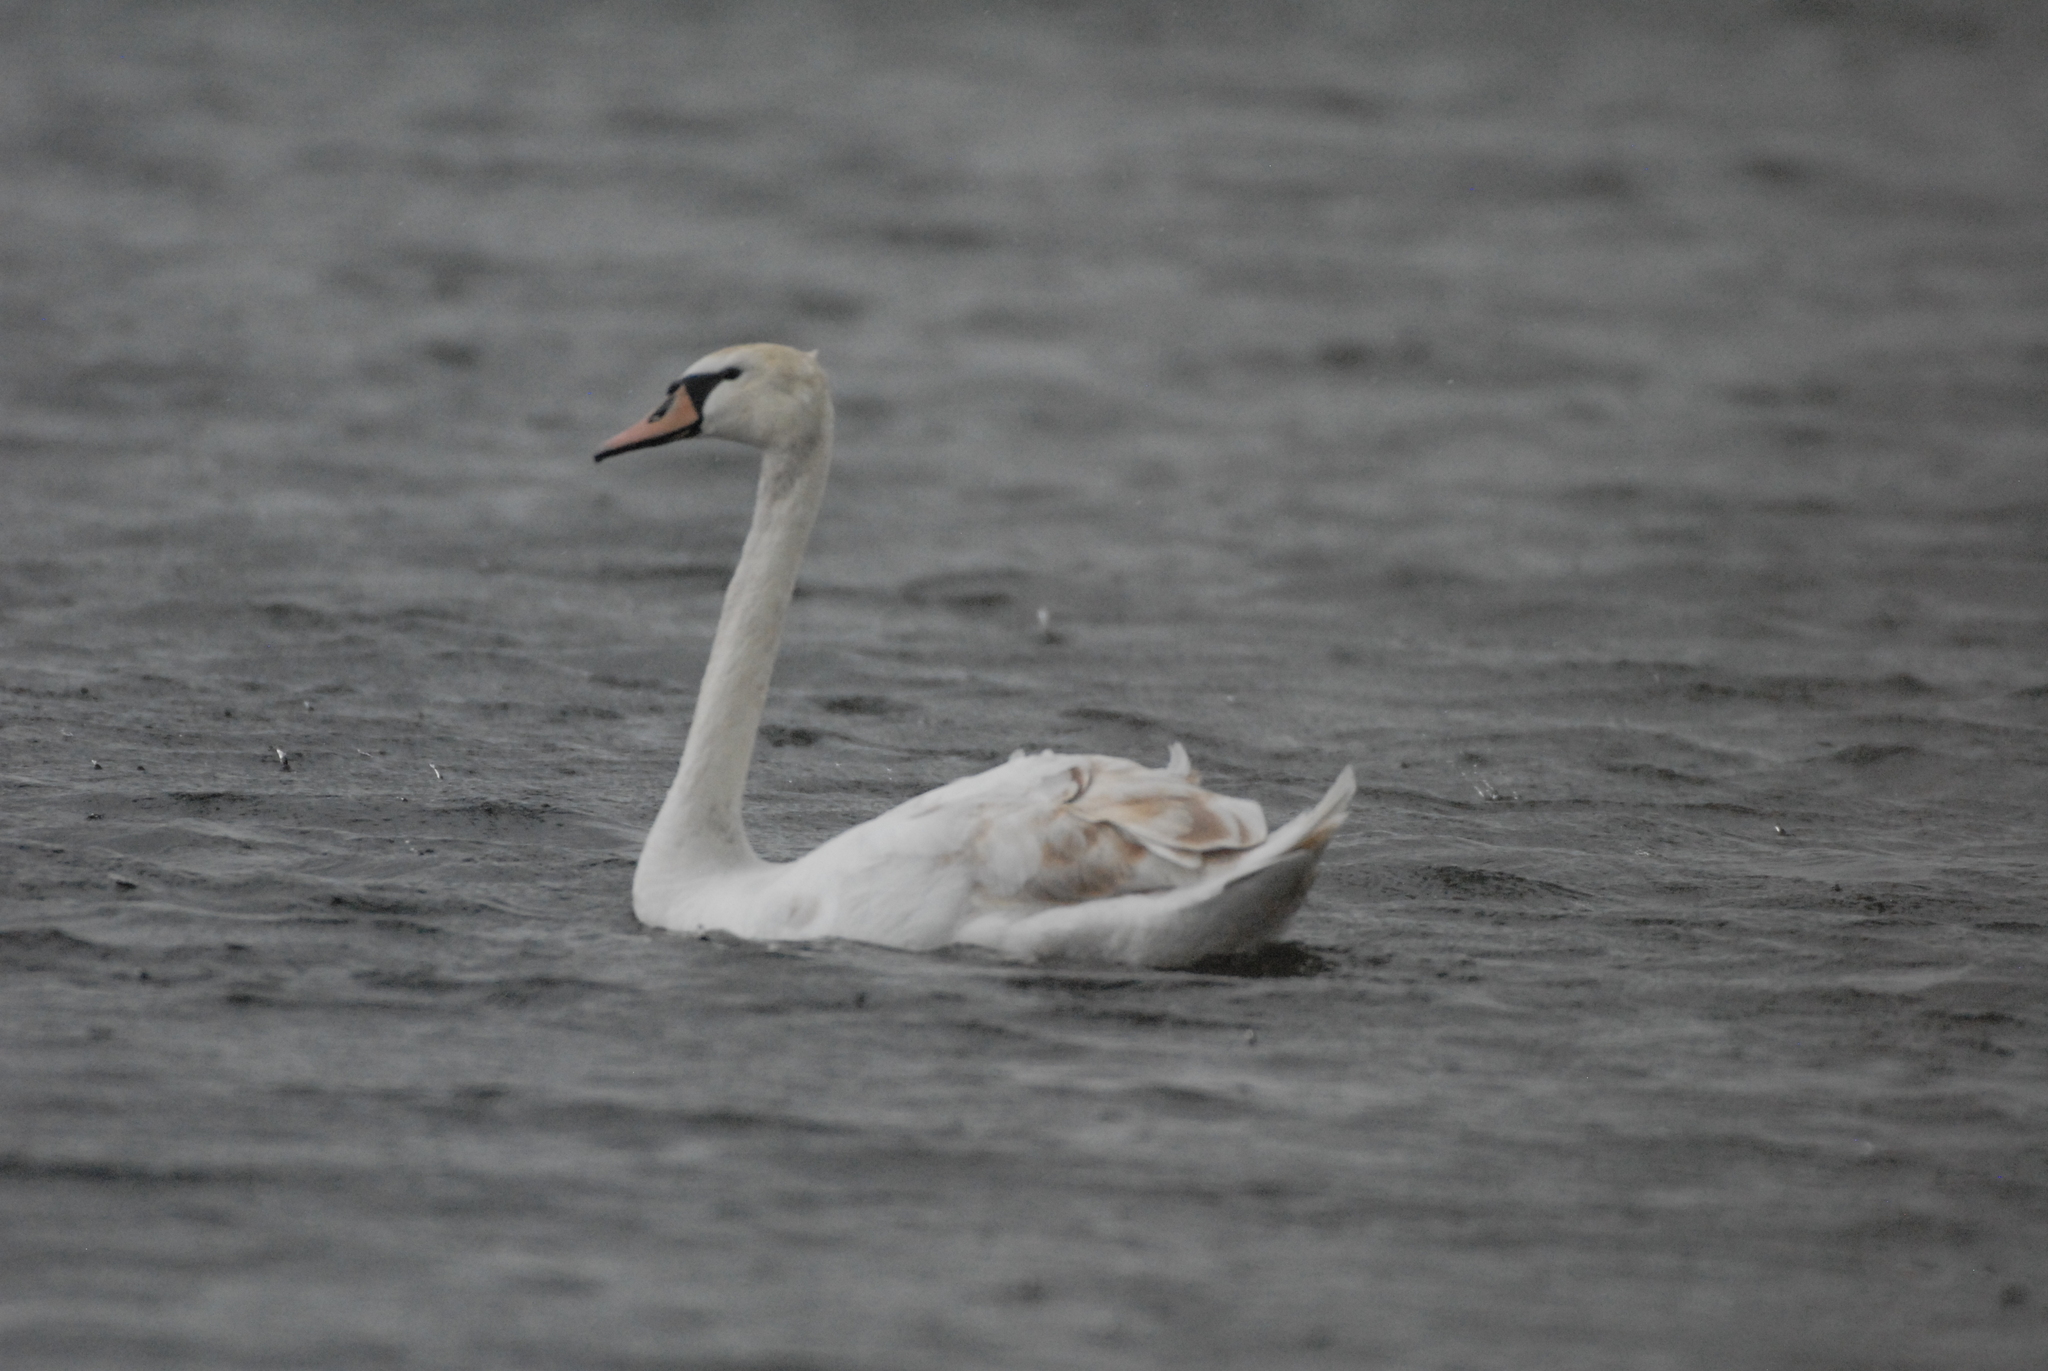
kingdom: Animalia
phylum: Chordata
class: Aves
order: Anseriformes
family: Anatidae
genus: Cygnus
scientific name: Cygnus olor
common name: Mute swan
